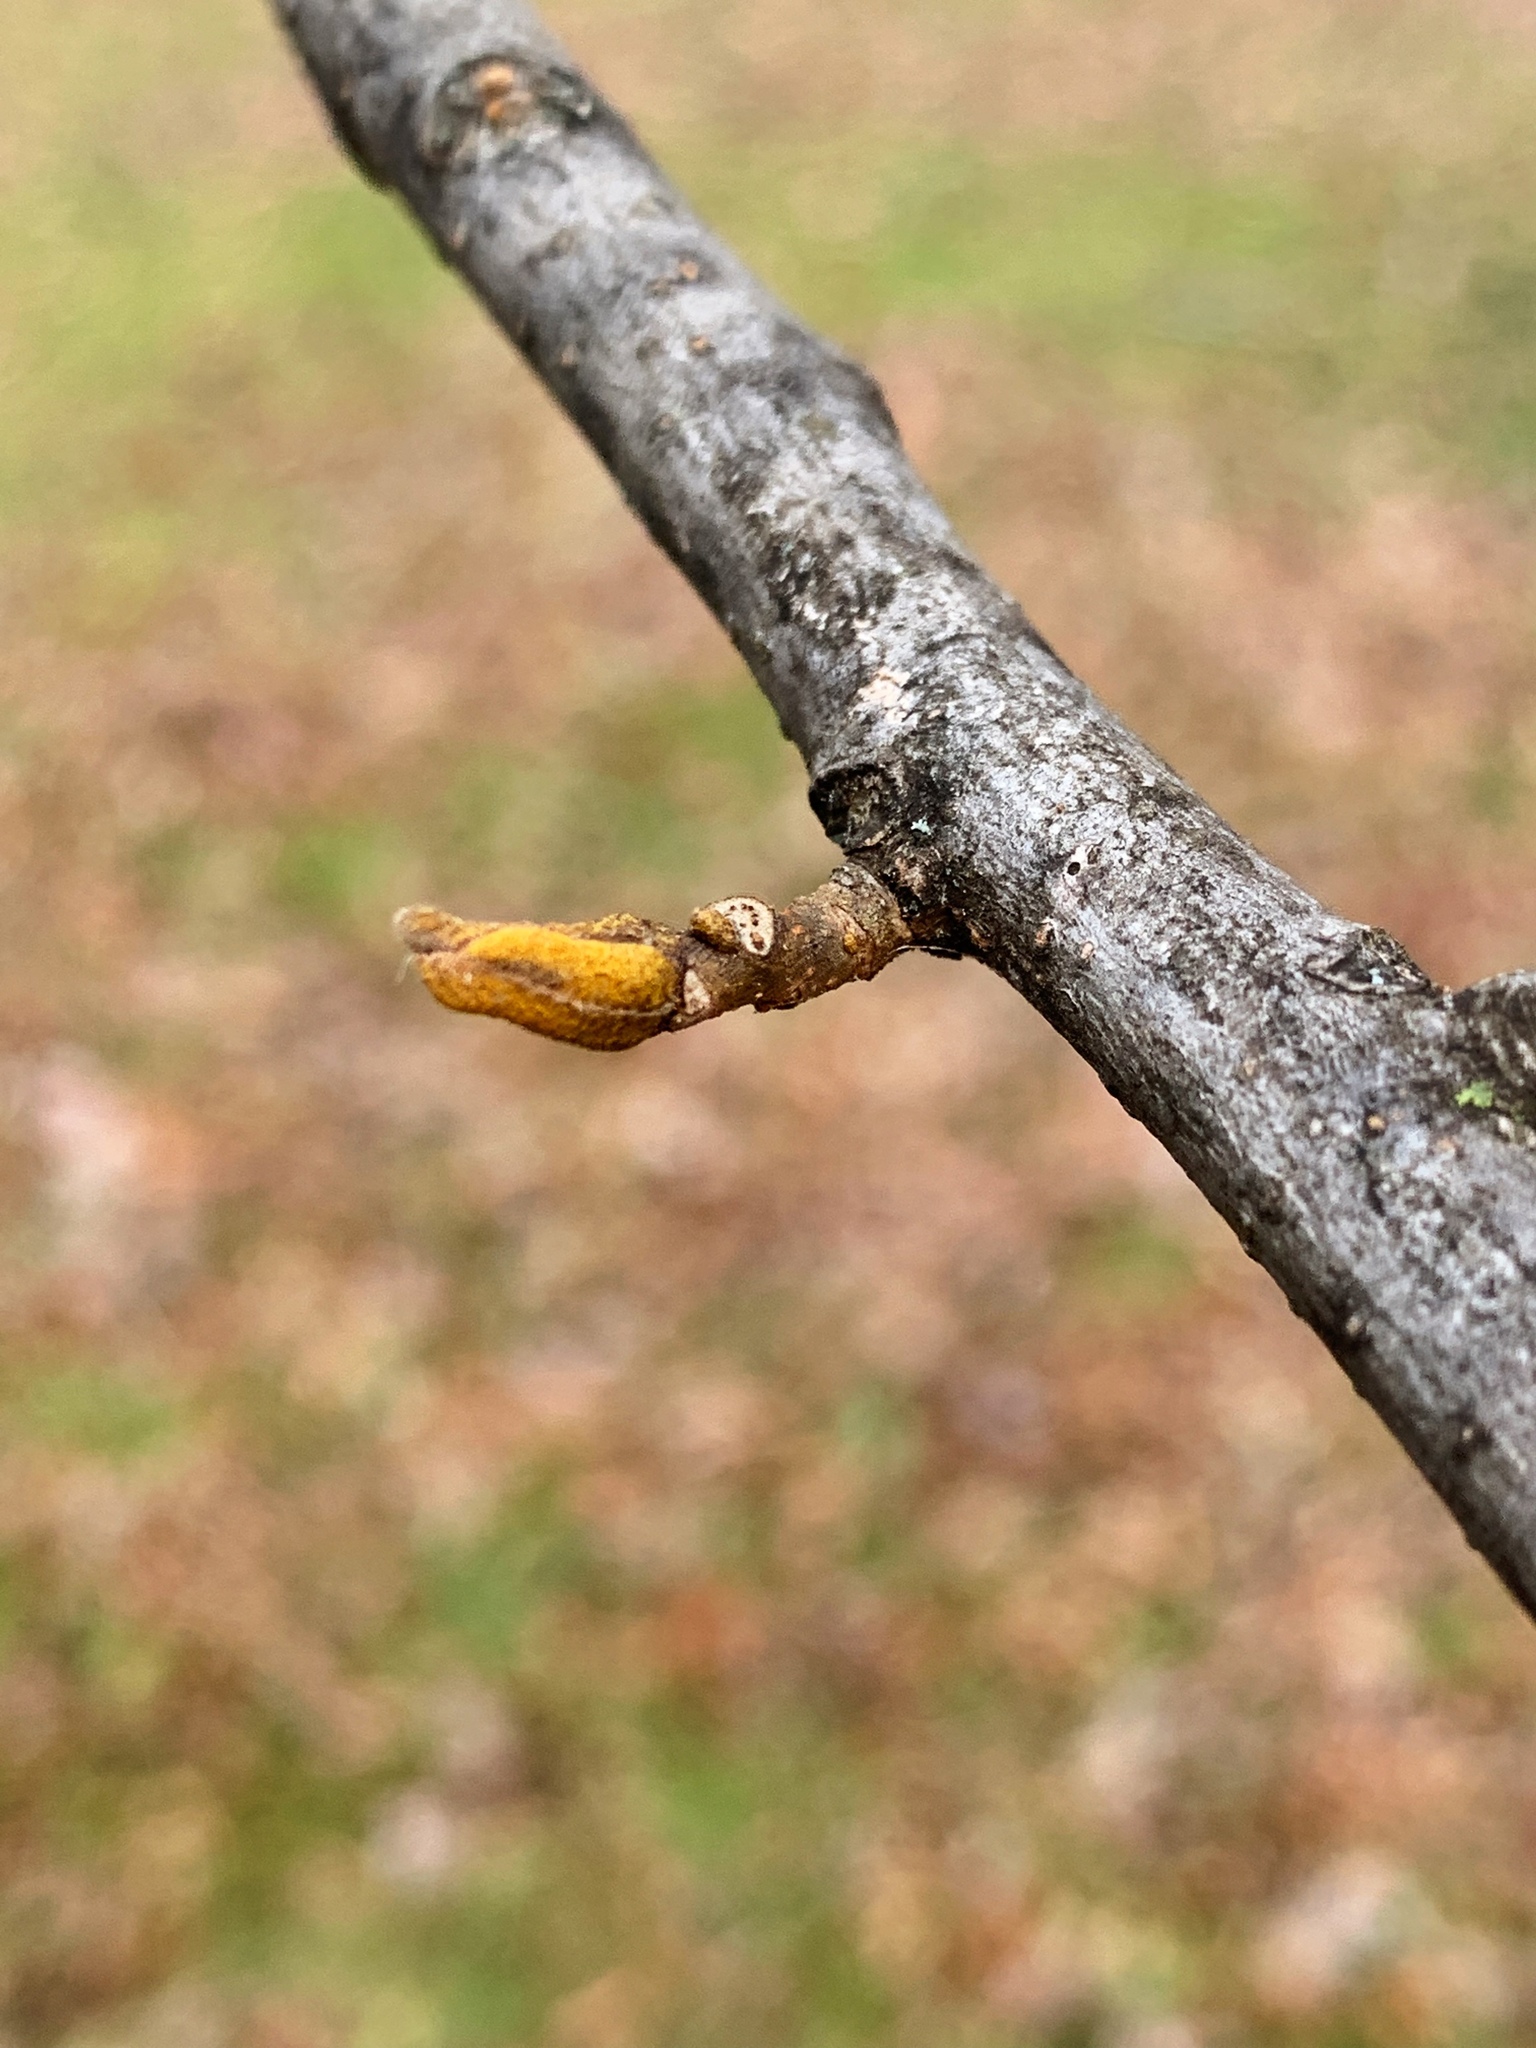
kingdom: Plantae
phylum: Tracheophyta
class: Magnoliopsida
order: Fagales
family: Juglandaceae
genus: Carya
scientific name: Carya cordiformis
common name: Bitternut hickory
